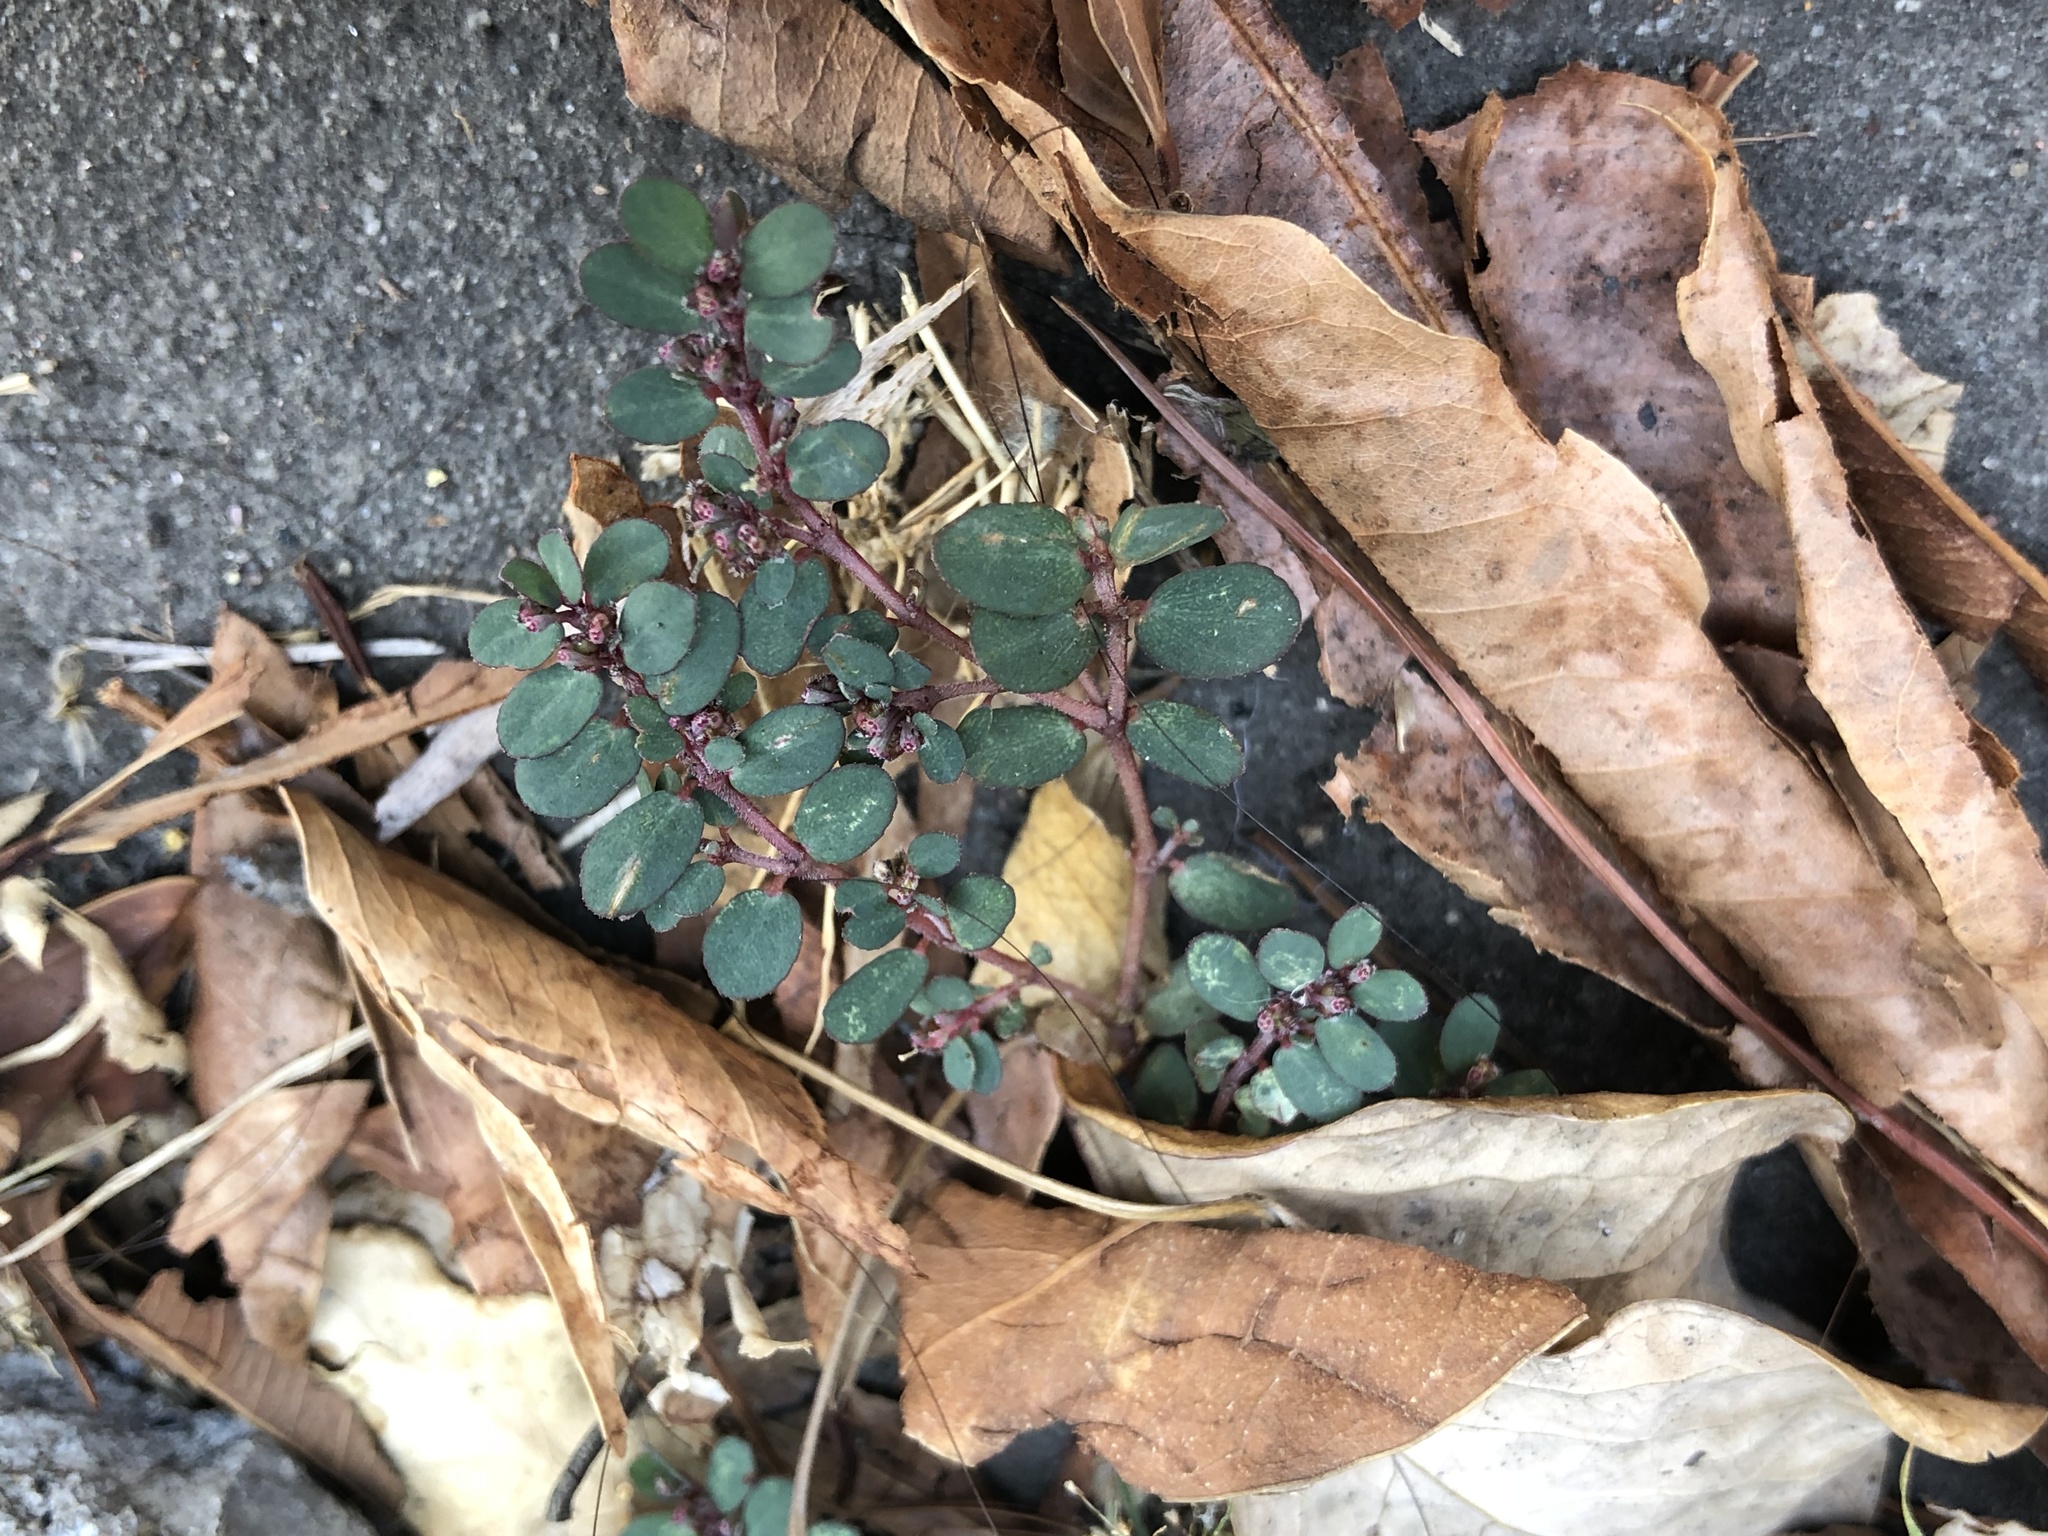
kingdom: Plantae
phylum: Tracheophyta
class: Magnoliopsida
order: Malpighiales
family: Euphorbiaceae
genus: Euphorbia
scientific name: Euphorbia prostrata
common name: Prostrate sandmat
